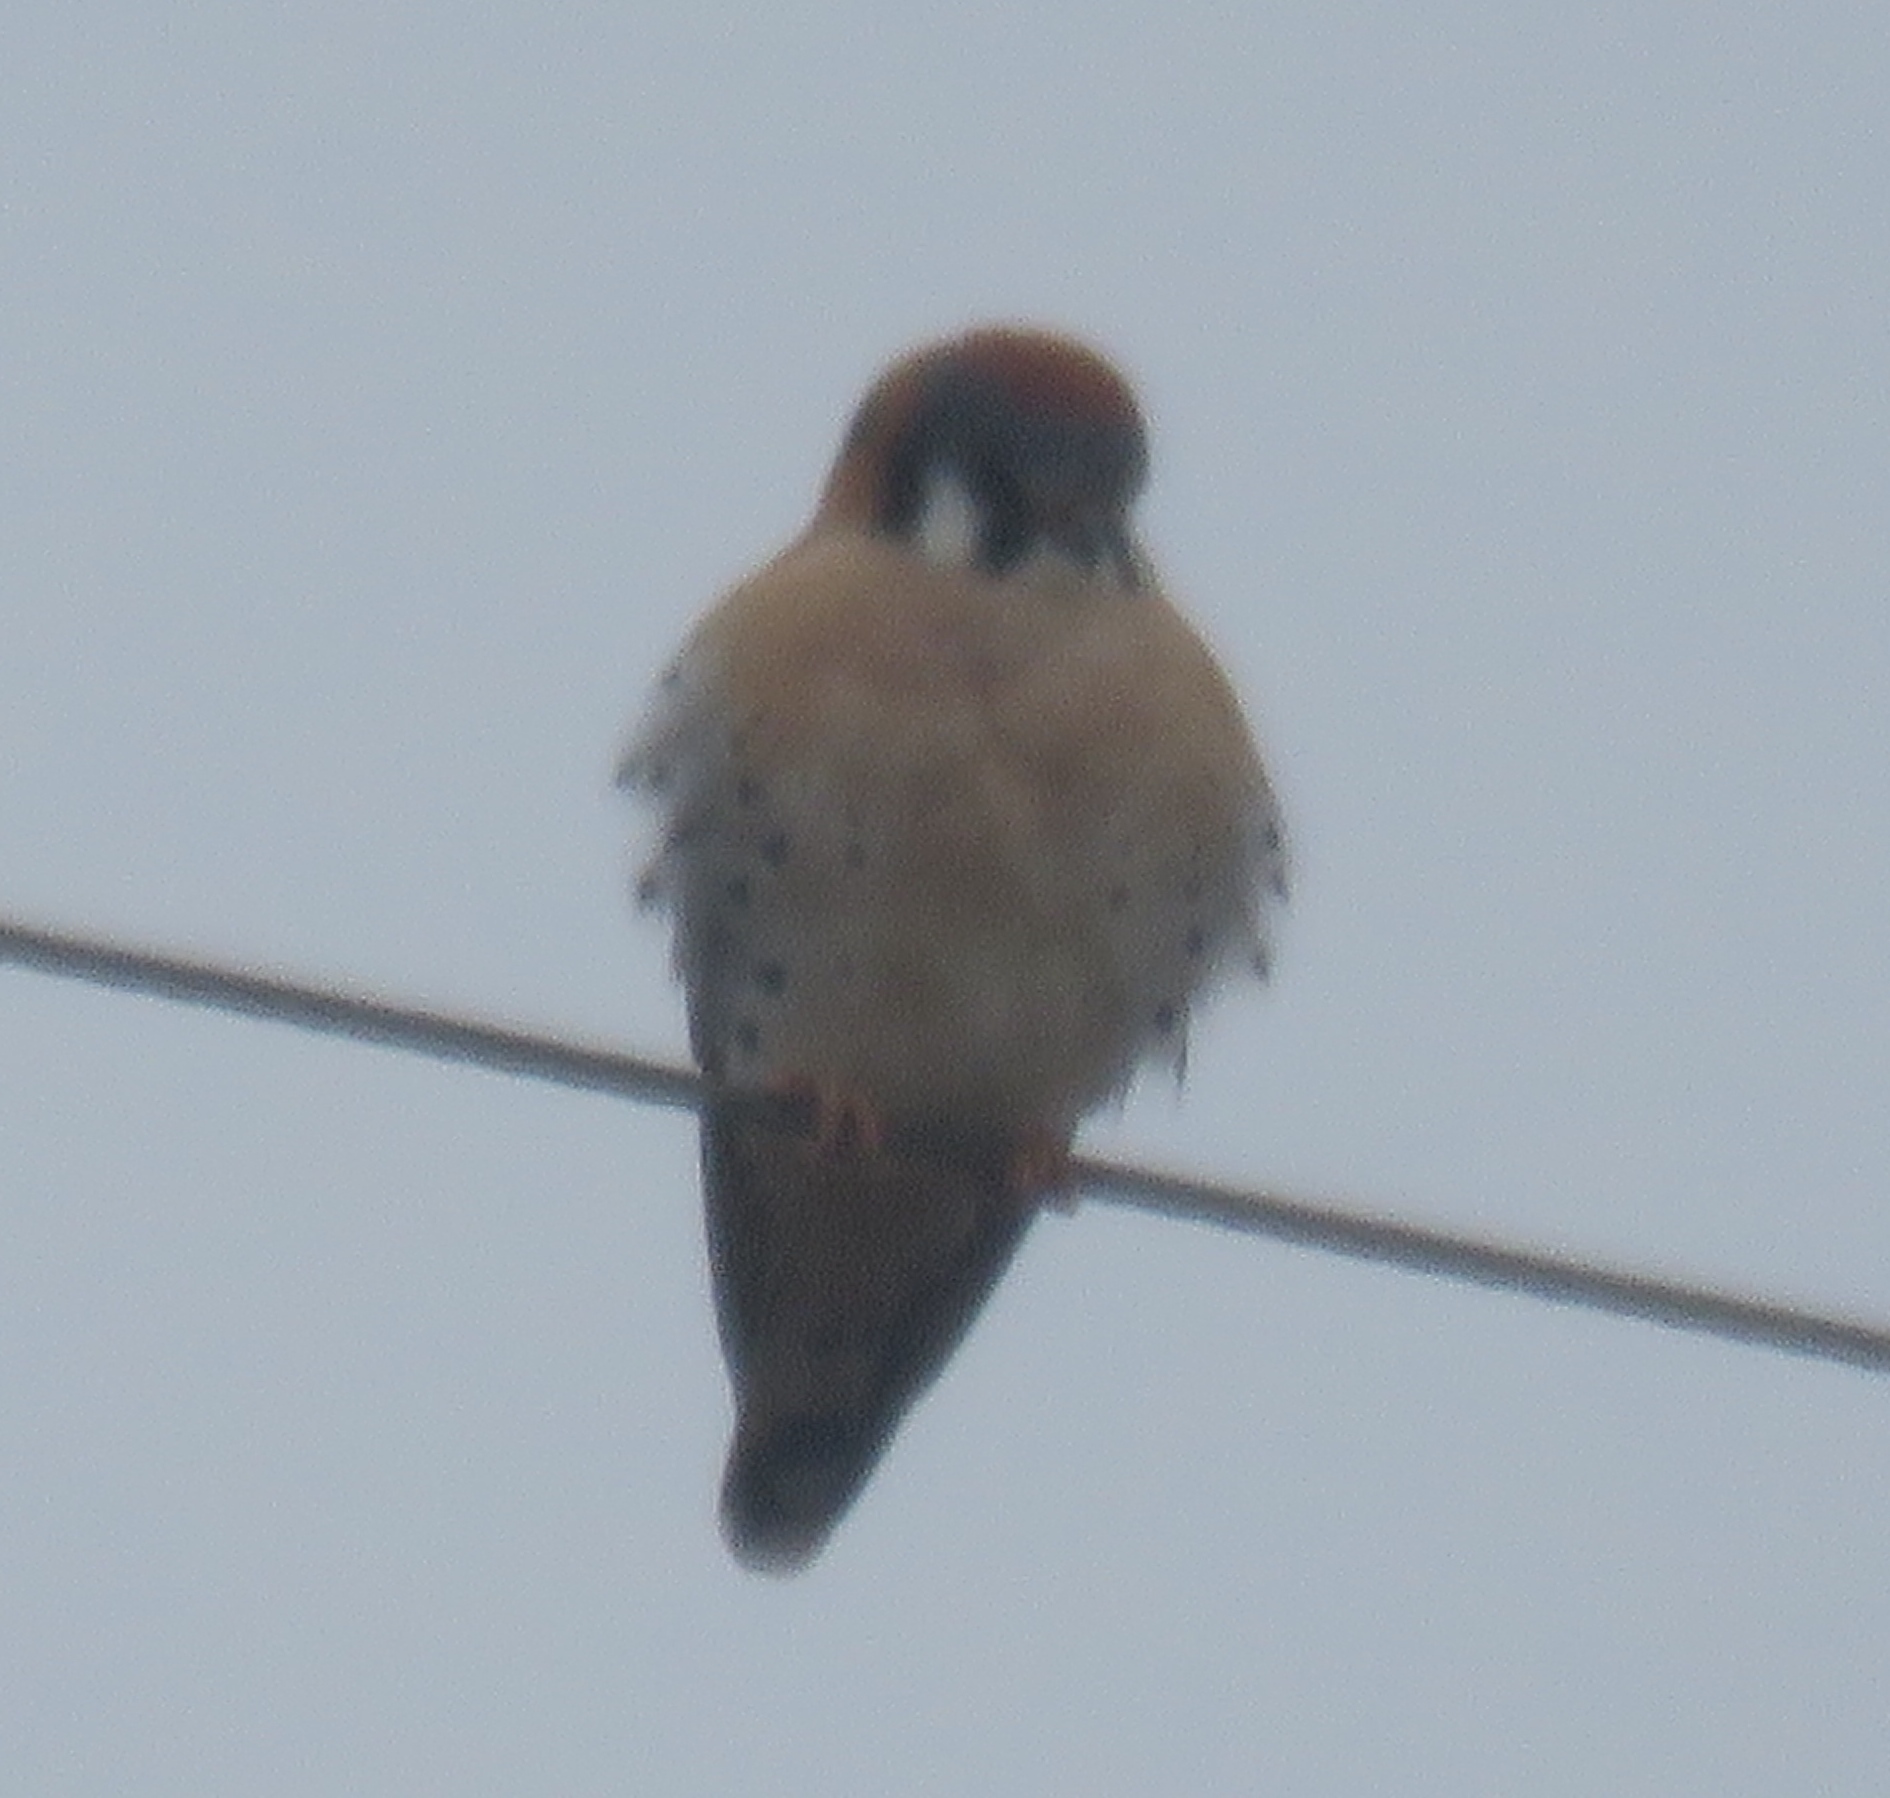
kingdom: Animalia
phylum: Chordata
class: Aves
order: Falconiformes
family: Falconidae
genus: Falco
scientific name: Falco sparverius
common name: American kestrel
